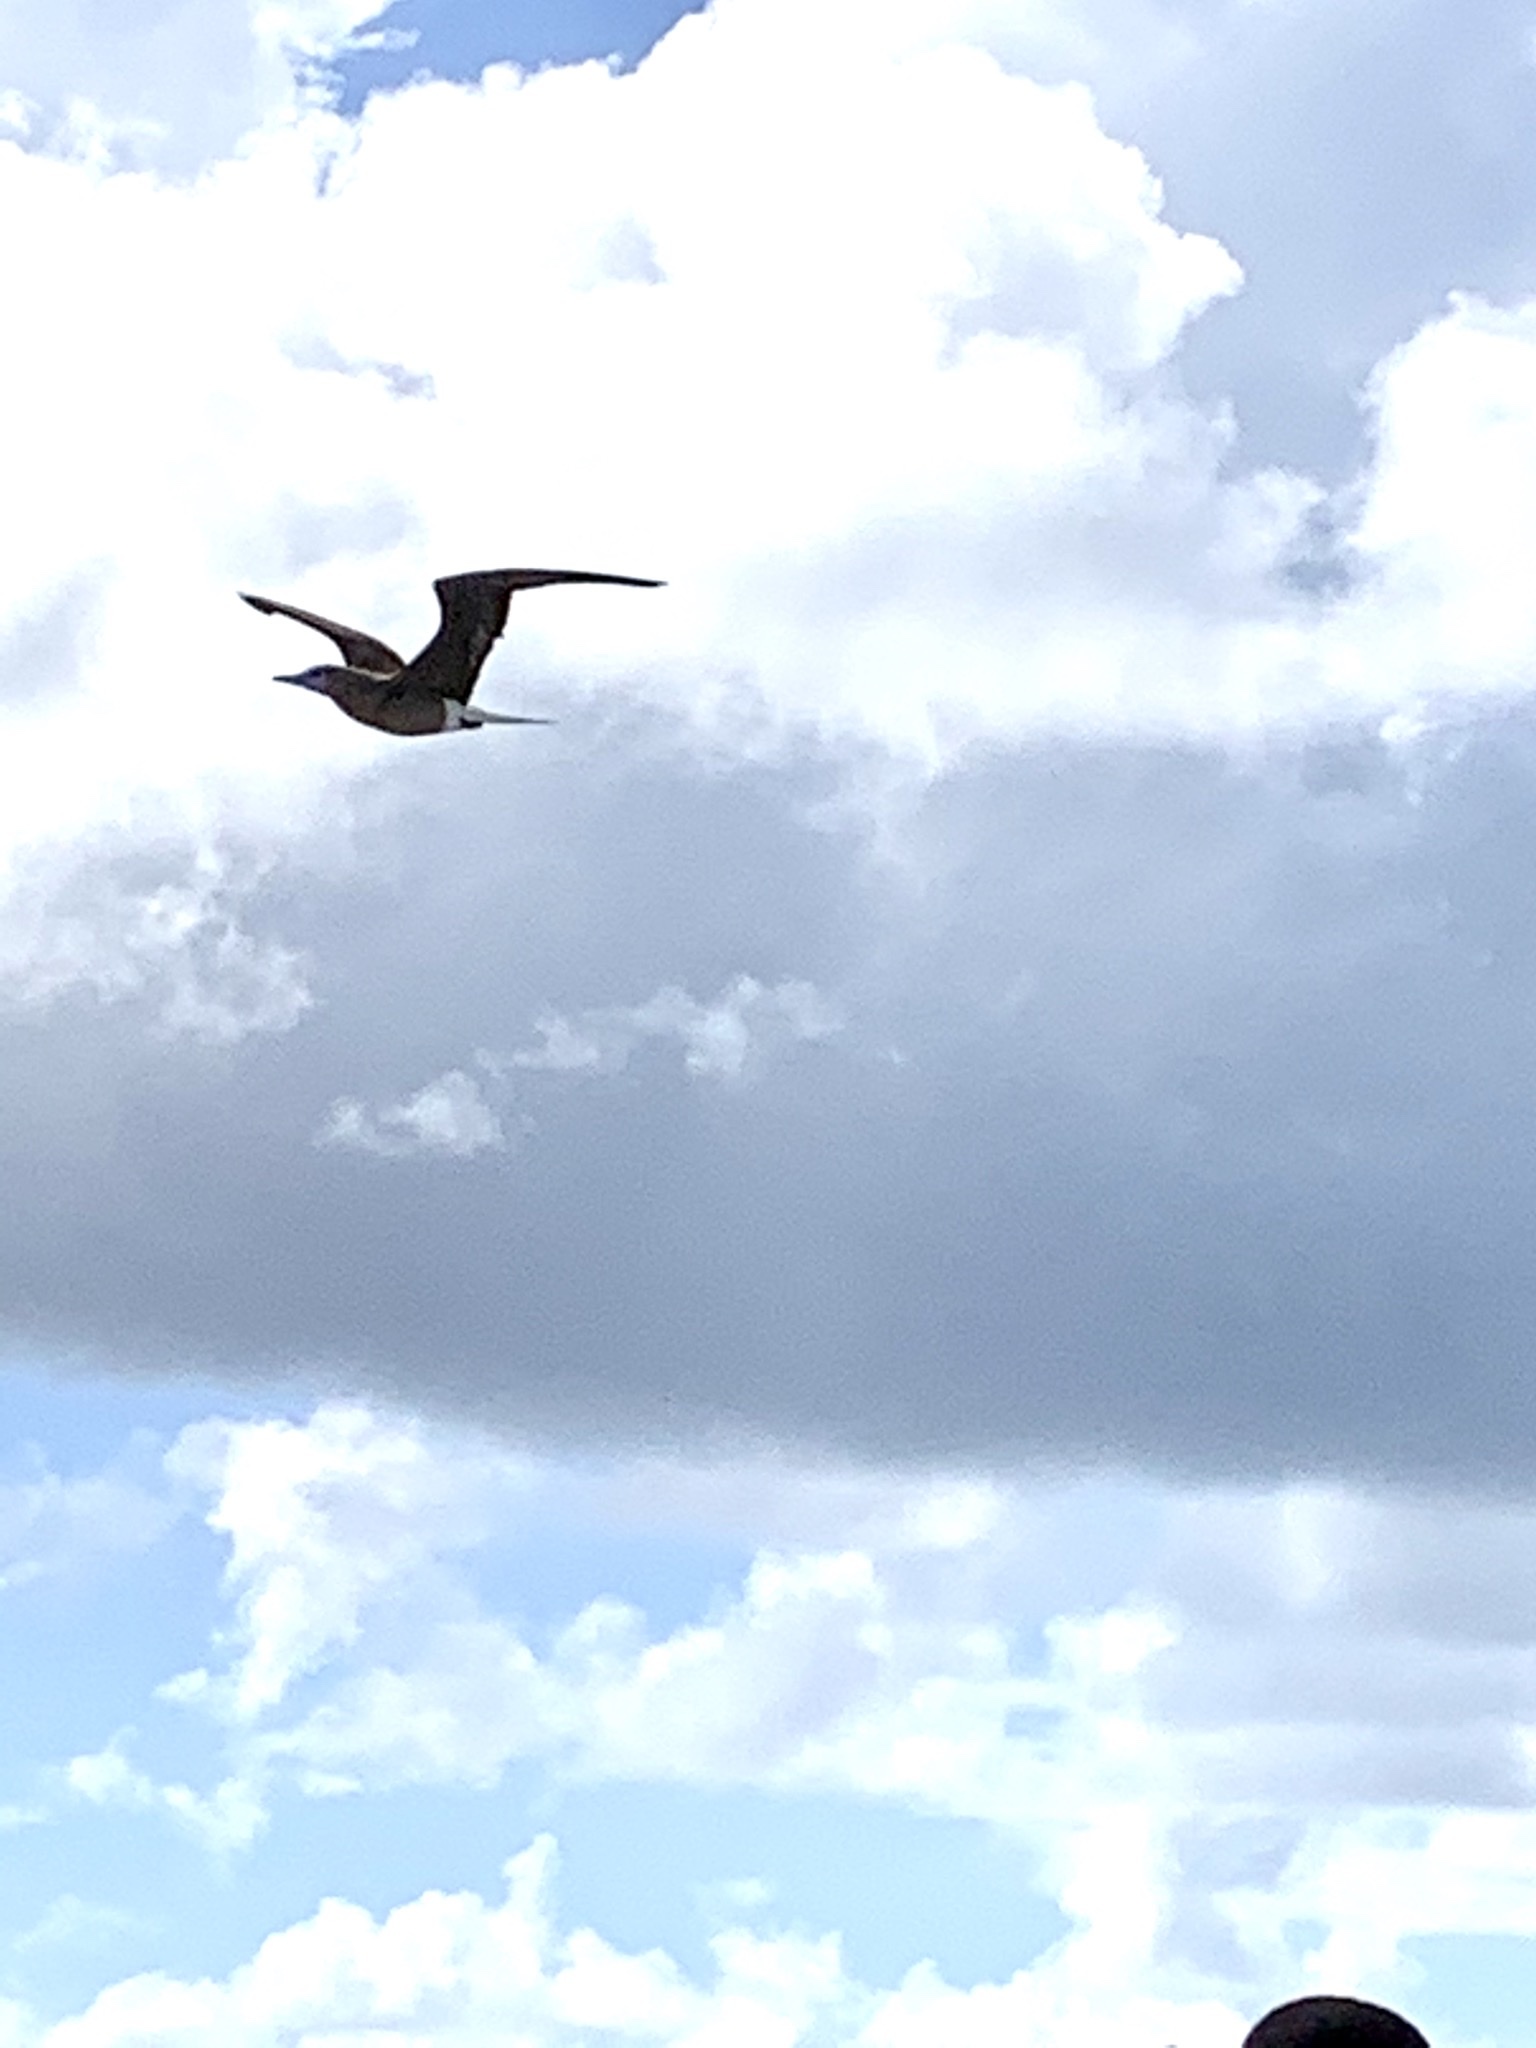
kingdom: Animalia
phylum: Chordata
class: Aves
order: Suliformes
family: Sulidae
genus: Sula
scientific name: Sula leucogaster
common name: Brown booby
